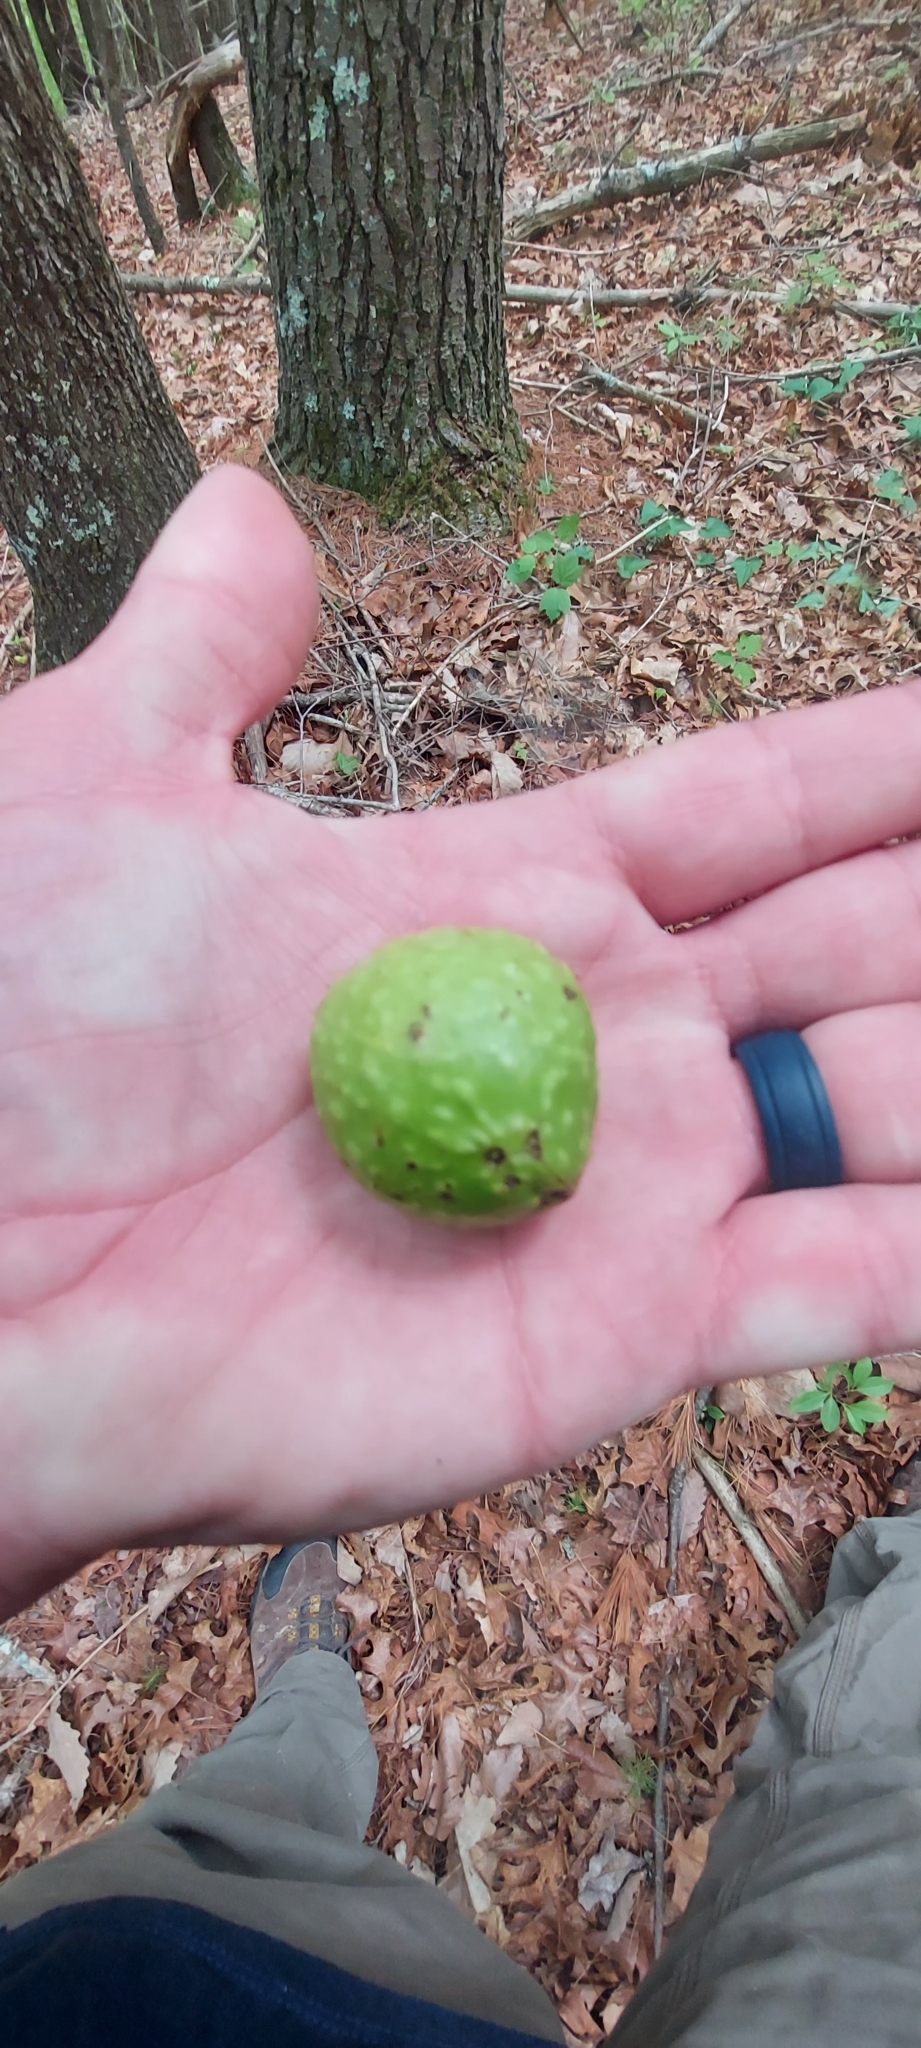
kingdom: Animalia
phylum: Arthropoda
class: Insecta
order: Hymenoptera
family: Cynipidae
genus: Amphibolips
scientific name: Amphibolips
